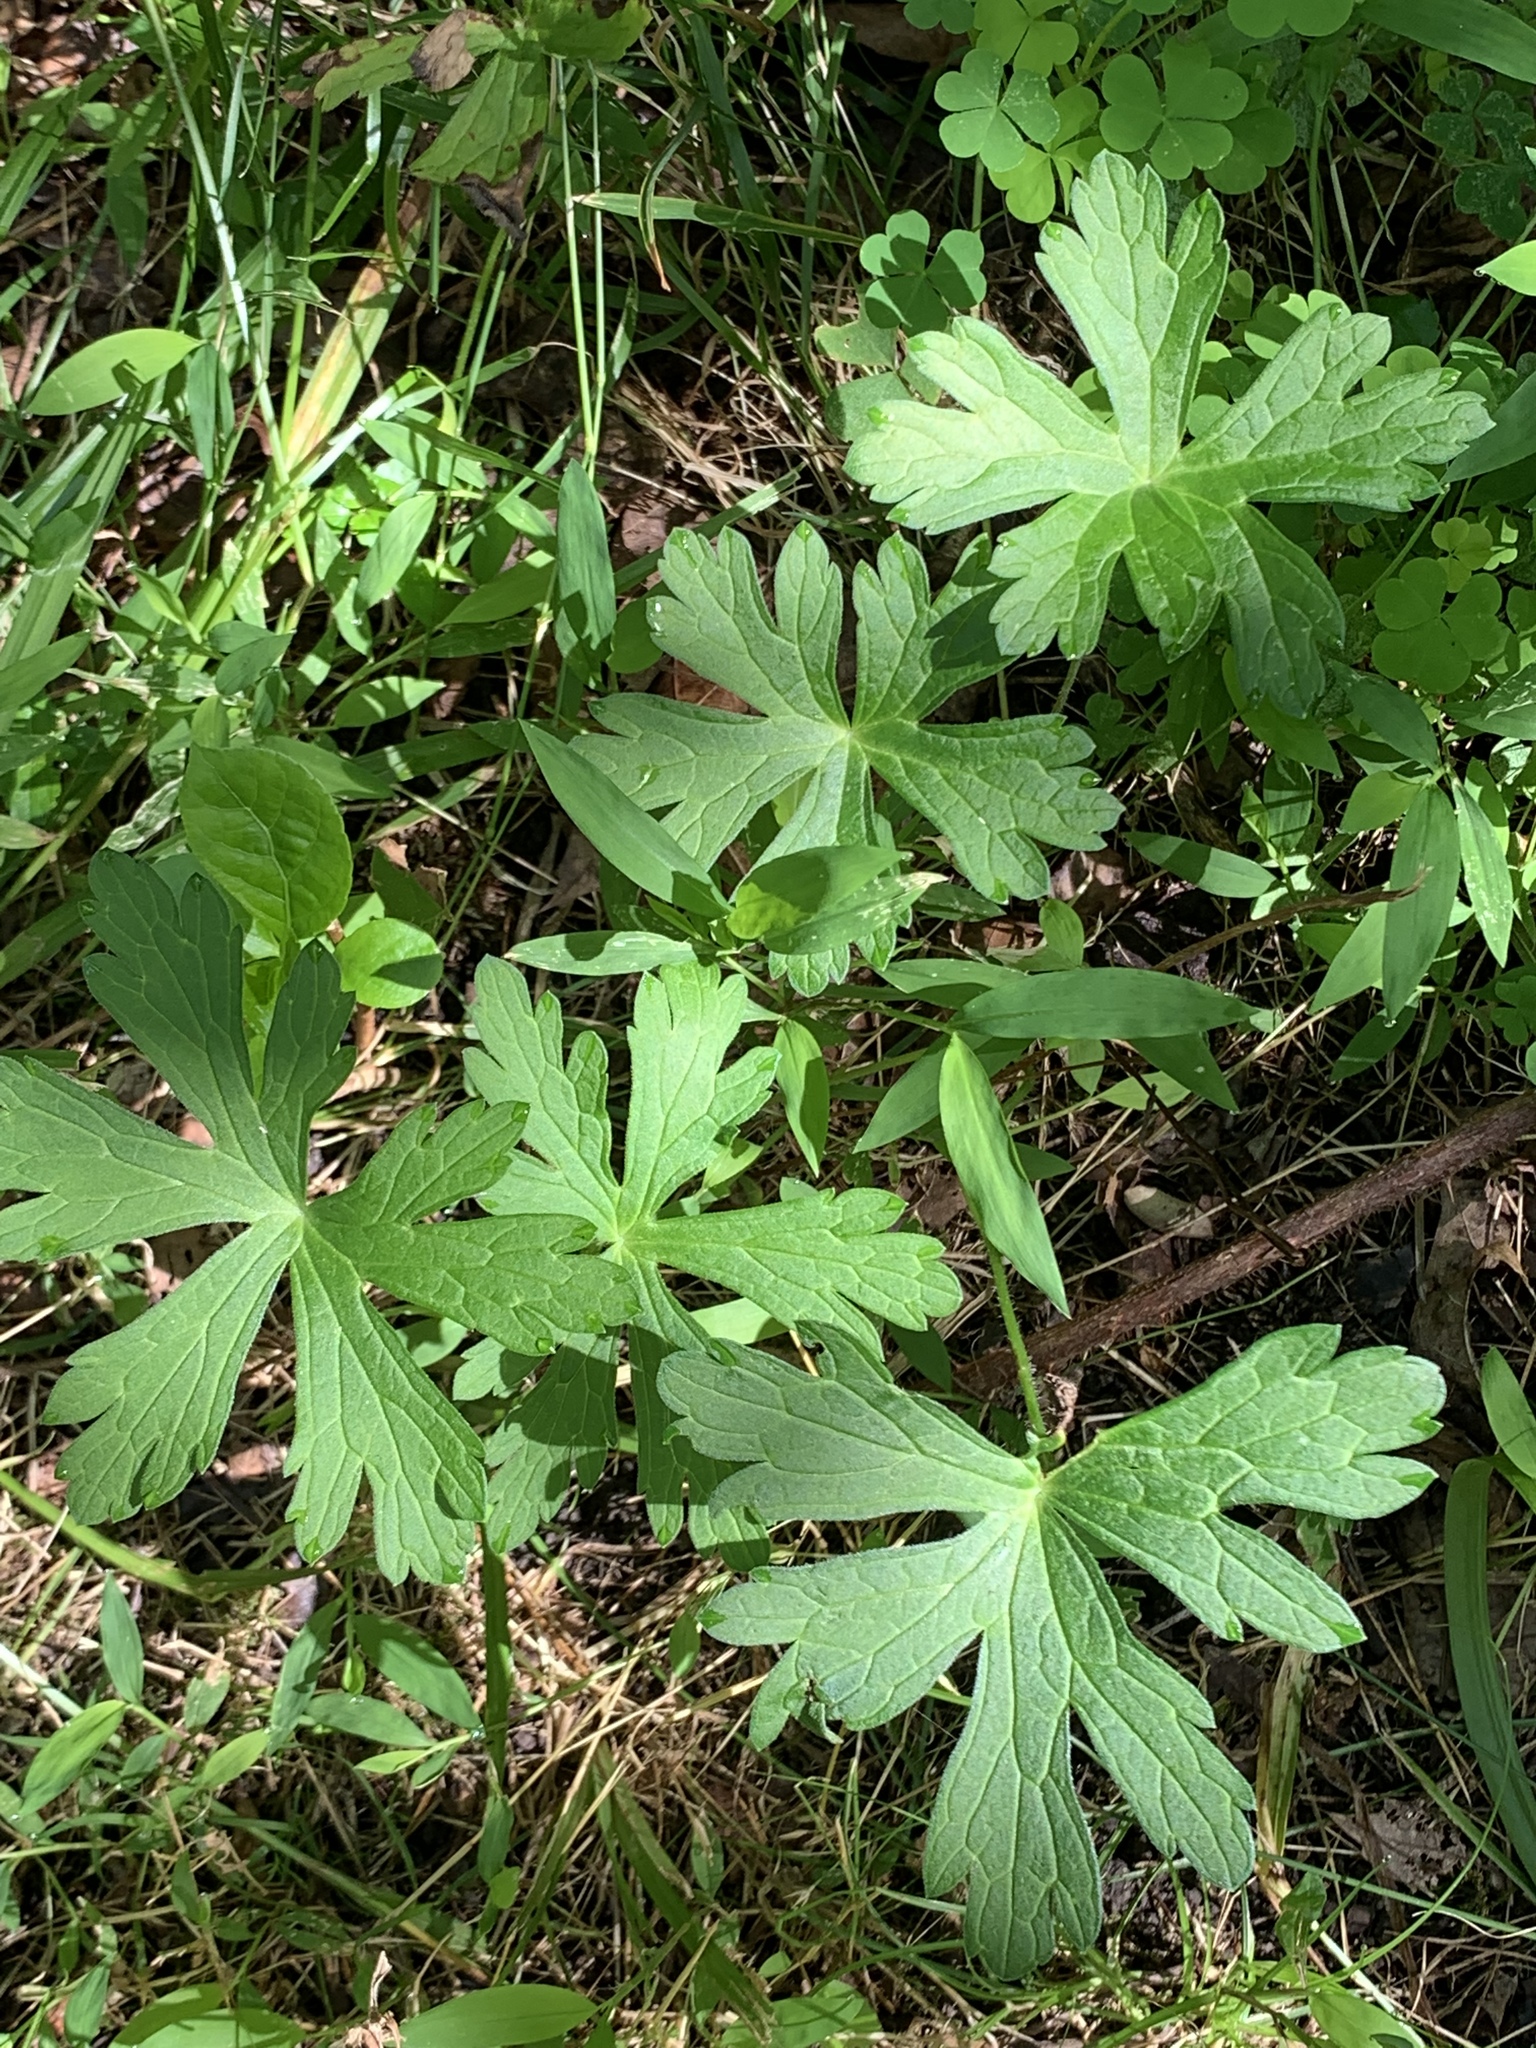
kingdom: Plantae
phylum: Tracheophyta
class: Magnoliopsida
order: Geraniales
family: Geraniaceae
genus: Geranium
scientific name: Geranium maculatum
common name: Spotted geranium
